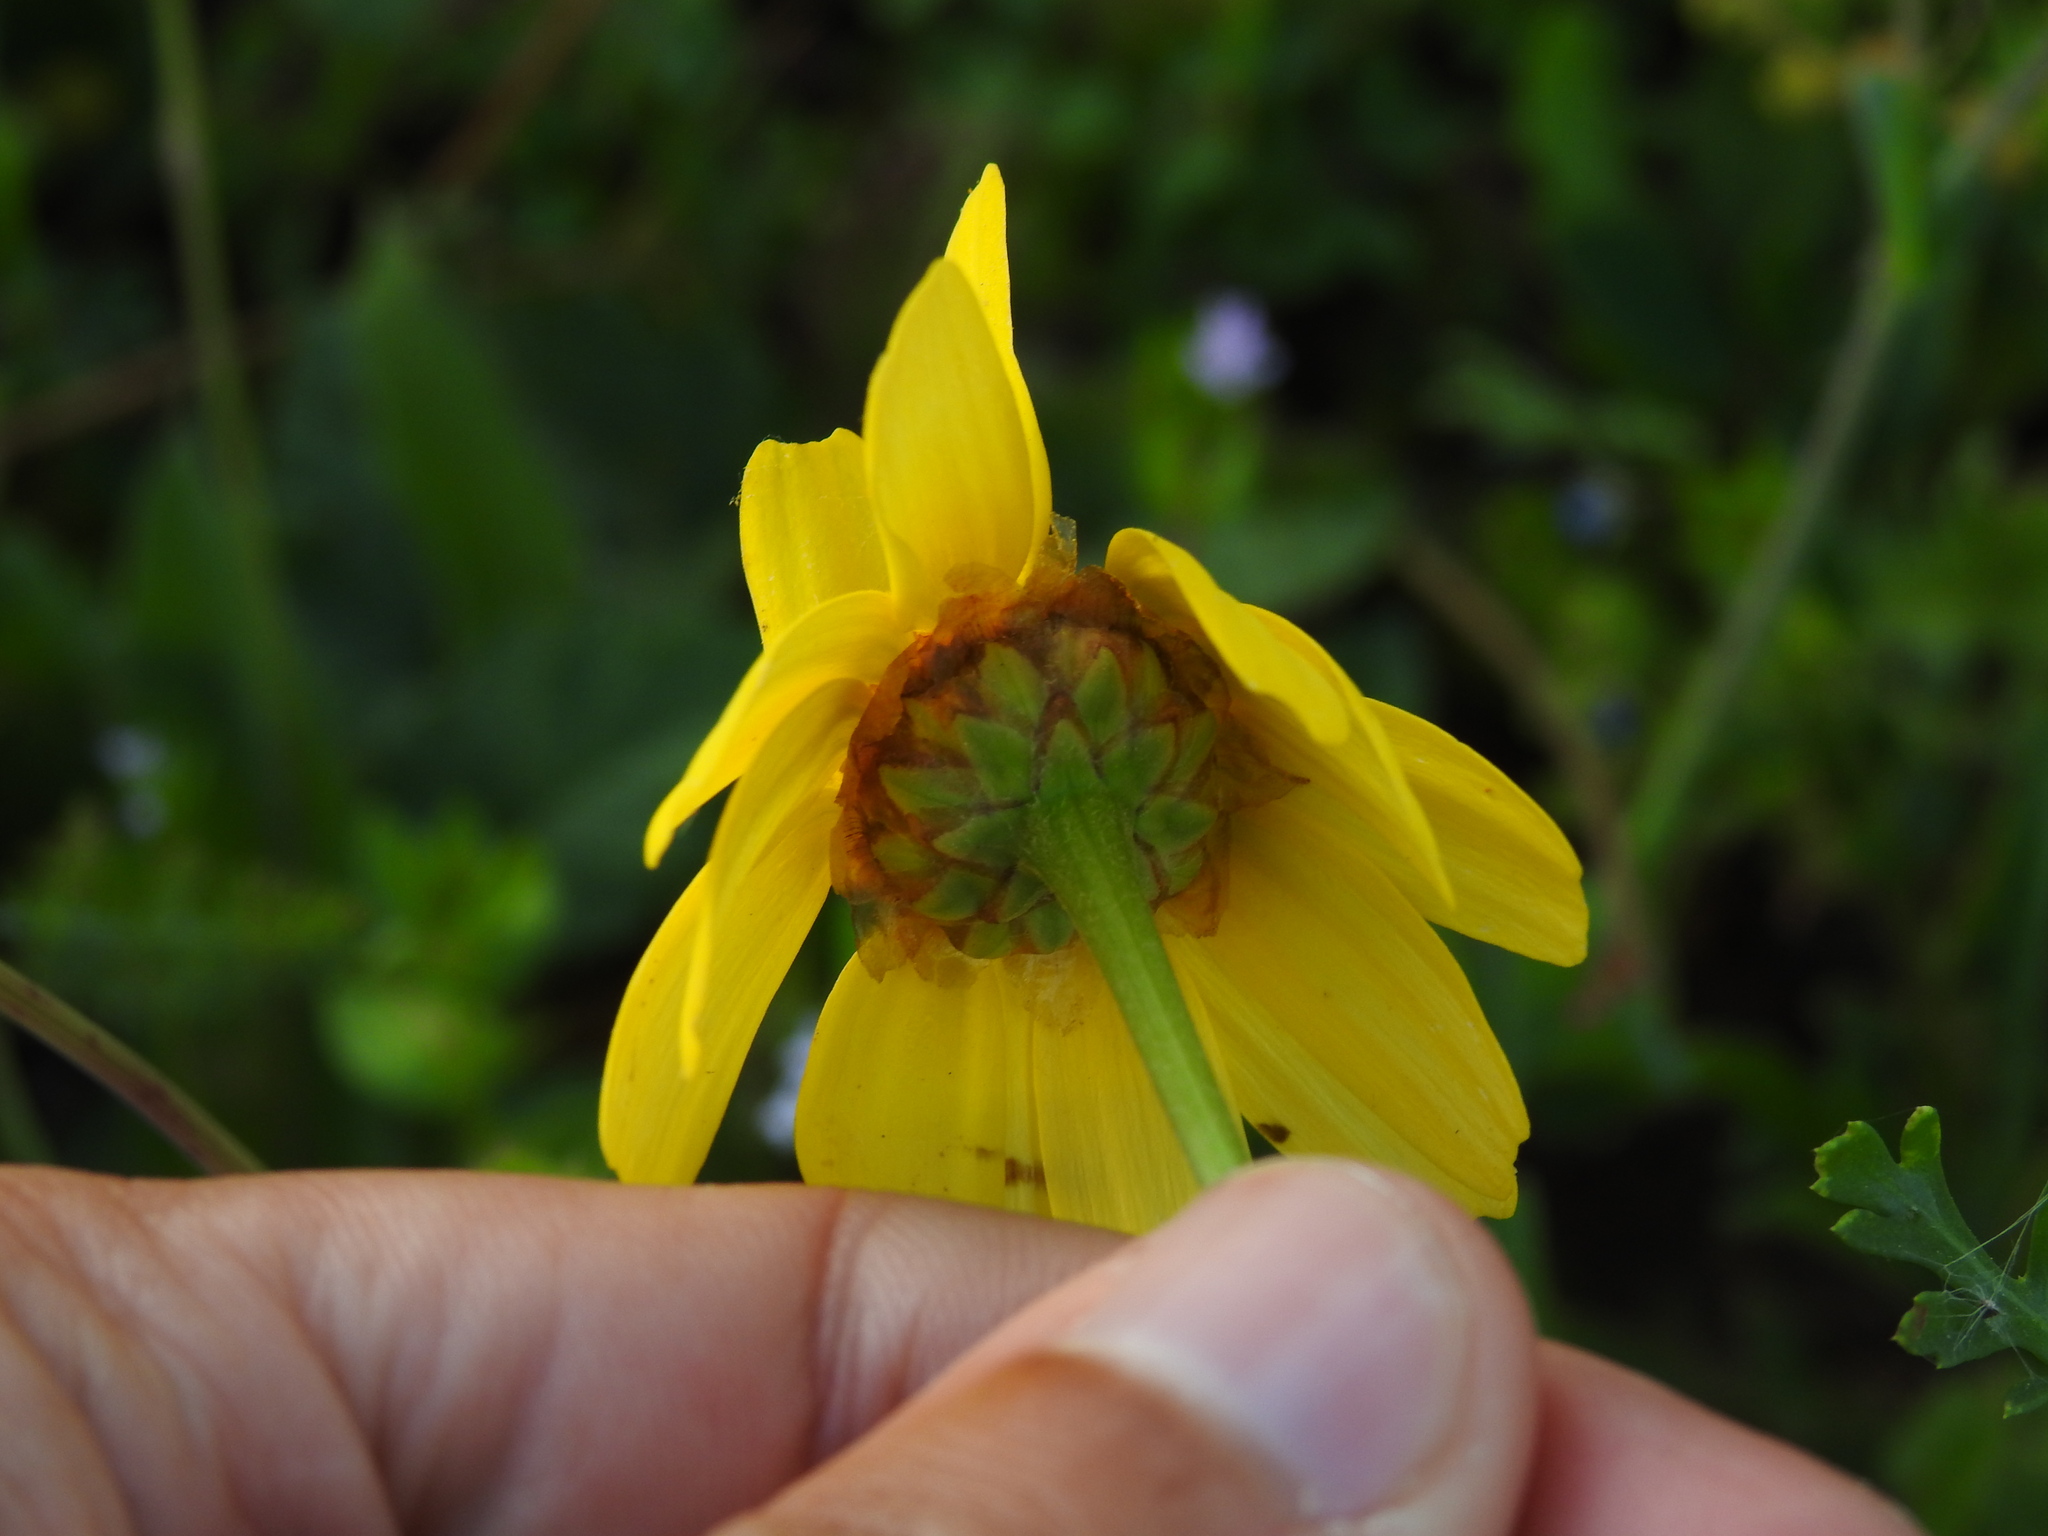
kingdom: Plantae
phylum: Tracheophyta
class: Magnoliopsida
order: Asterales
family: Asteraceae
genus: Glebionis
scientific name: Glebionis segetum
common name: Corndaisy
